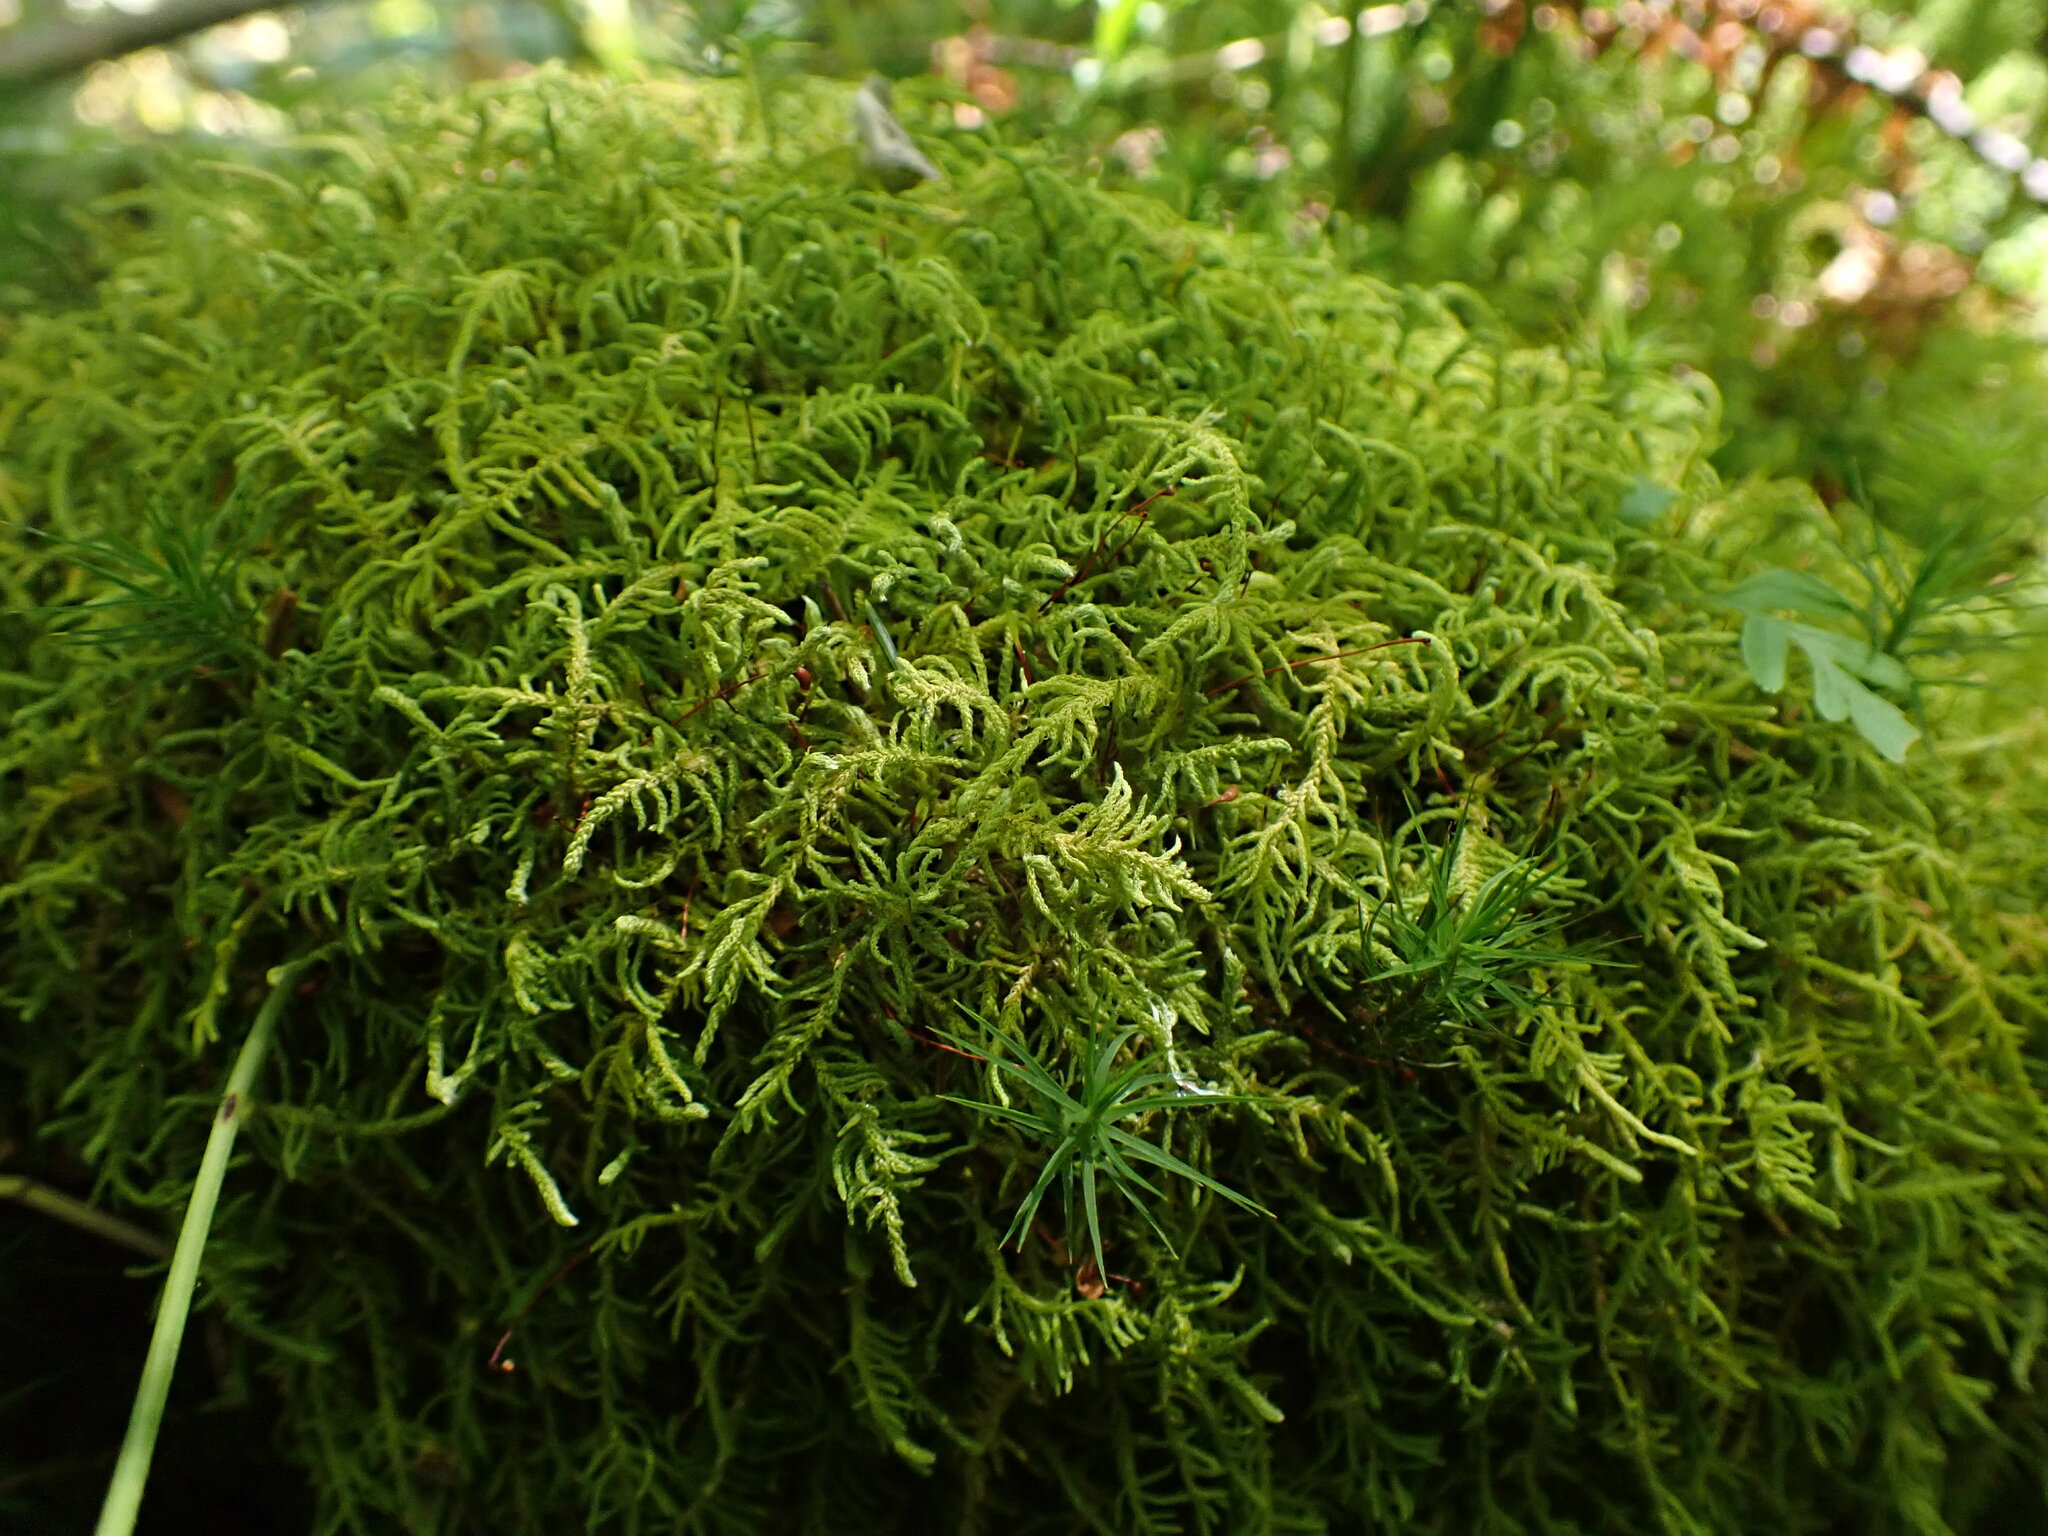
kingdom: Plantae
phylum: Bryophyta
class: Bryopsida
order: Hypnales
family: Brachytheciaceae
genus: Claopodium
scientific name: Claopodium crispifolium
